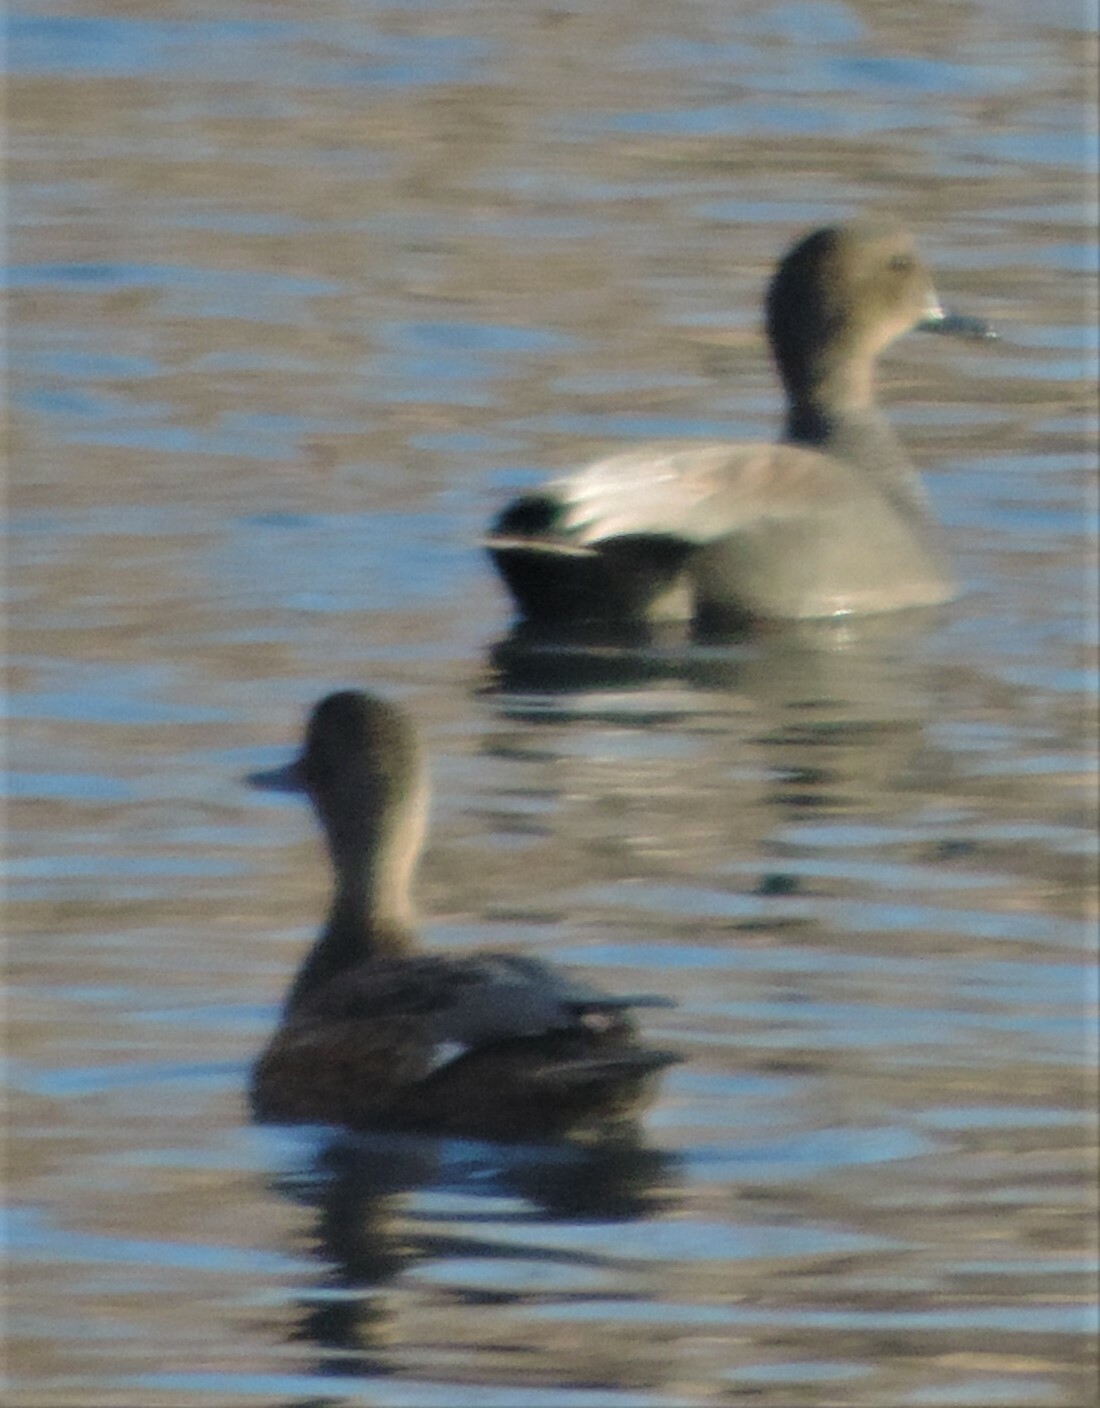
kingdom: Animalia
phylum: Chordata
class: Aves
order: Anseriformes
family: Anatidae
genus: Mareca
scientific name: Mareca strepera
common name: Gadwall
